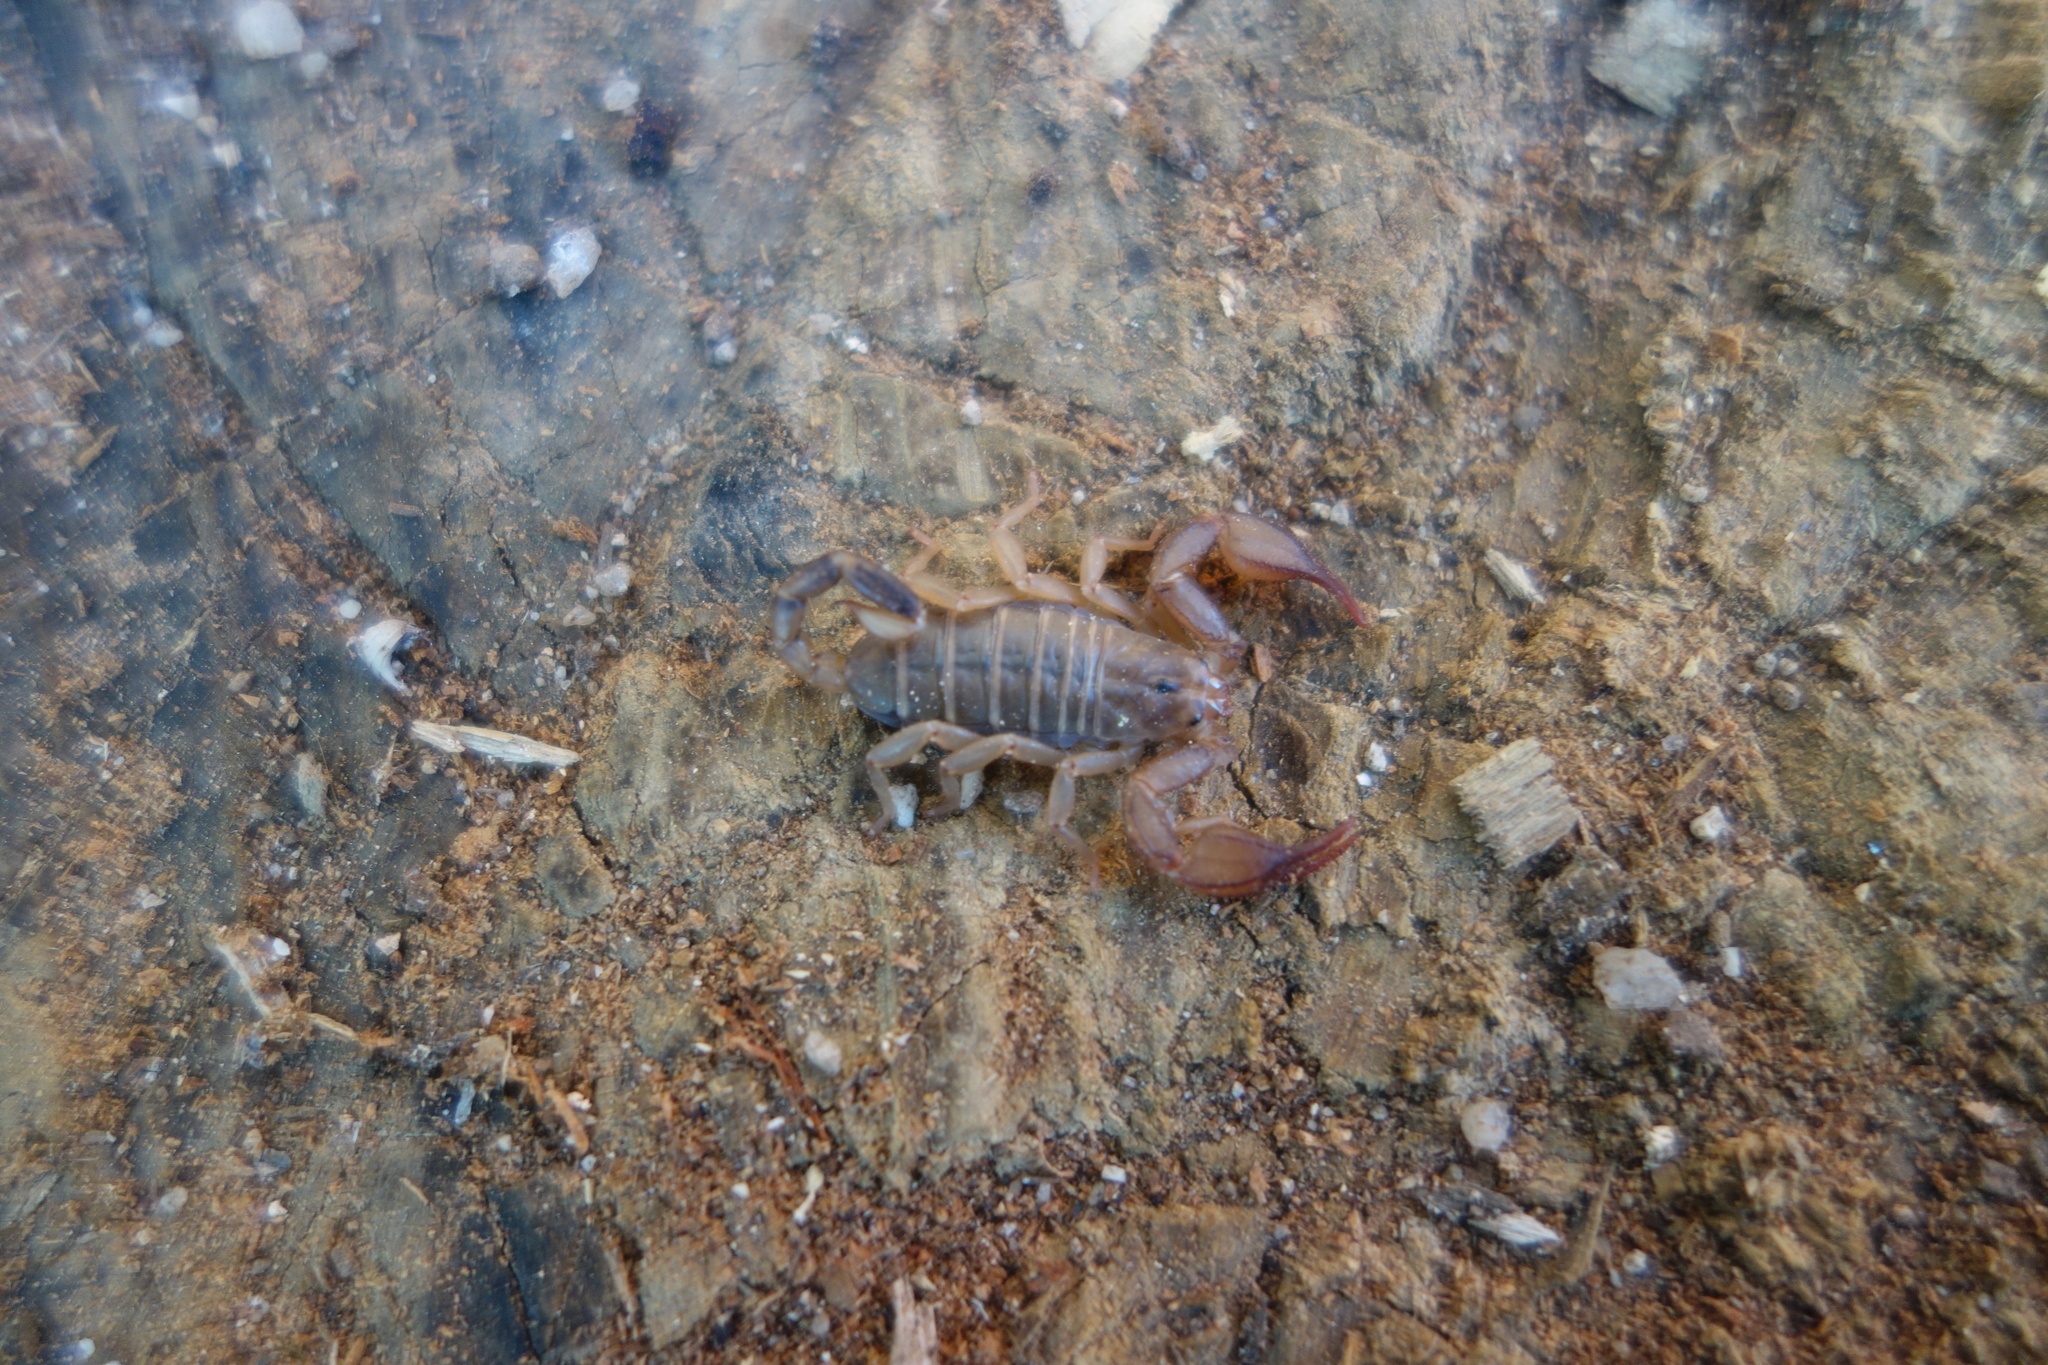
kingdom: Animalia
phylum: Arthropoda
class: Arachnida
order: Scorpiones
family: Euscorpiidae
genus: Euscorpius
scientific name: Euscorpius oglasae
